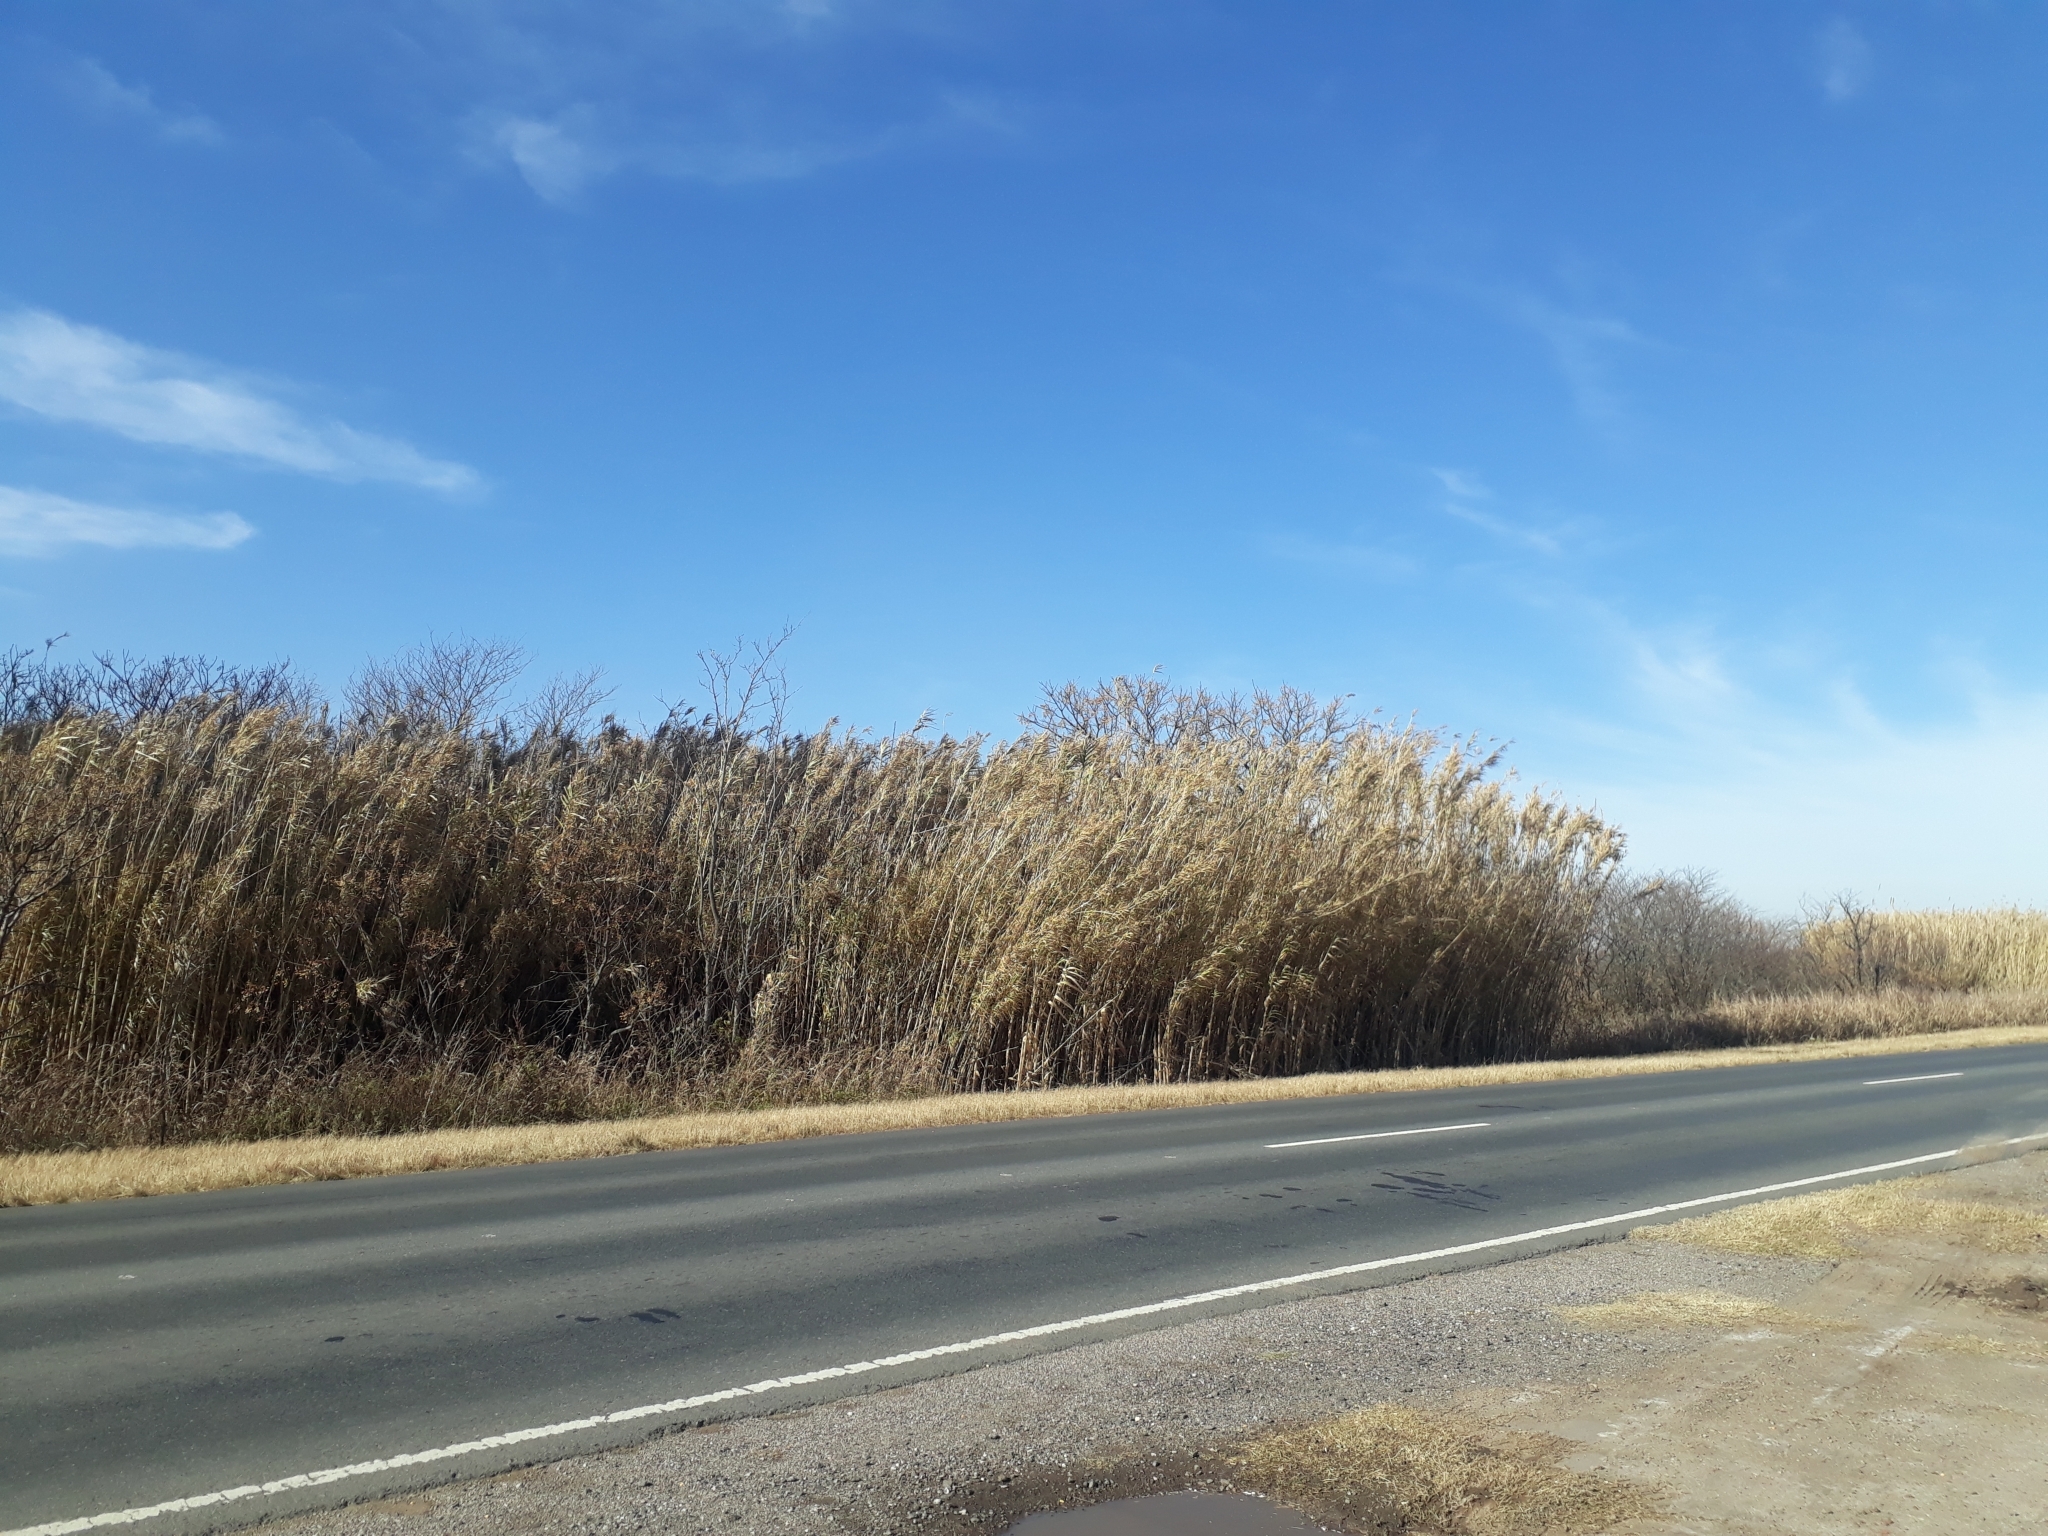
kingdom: Plantae
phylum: Tracheophyta
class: Liliopsida
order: Poales
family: Poaceae
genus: Arundo
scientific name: Arundo donax
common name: Giant reed
